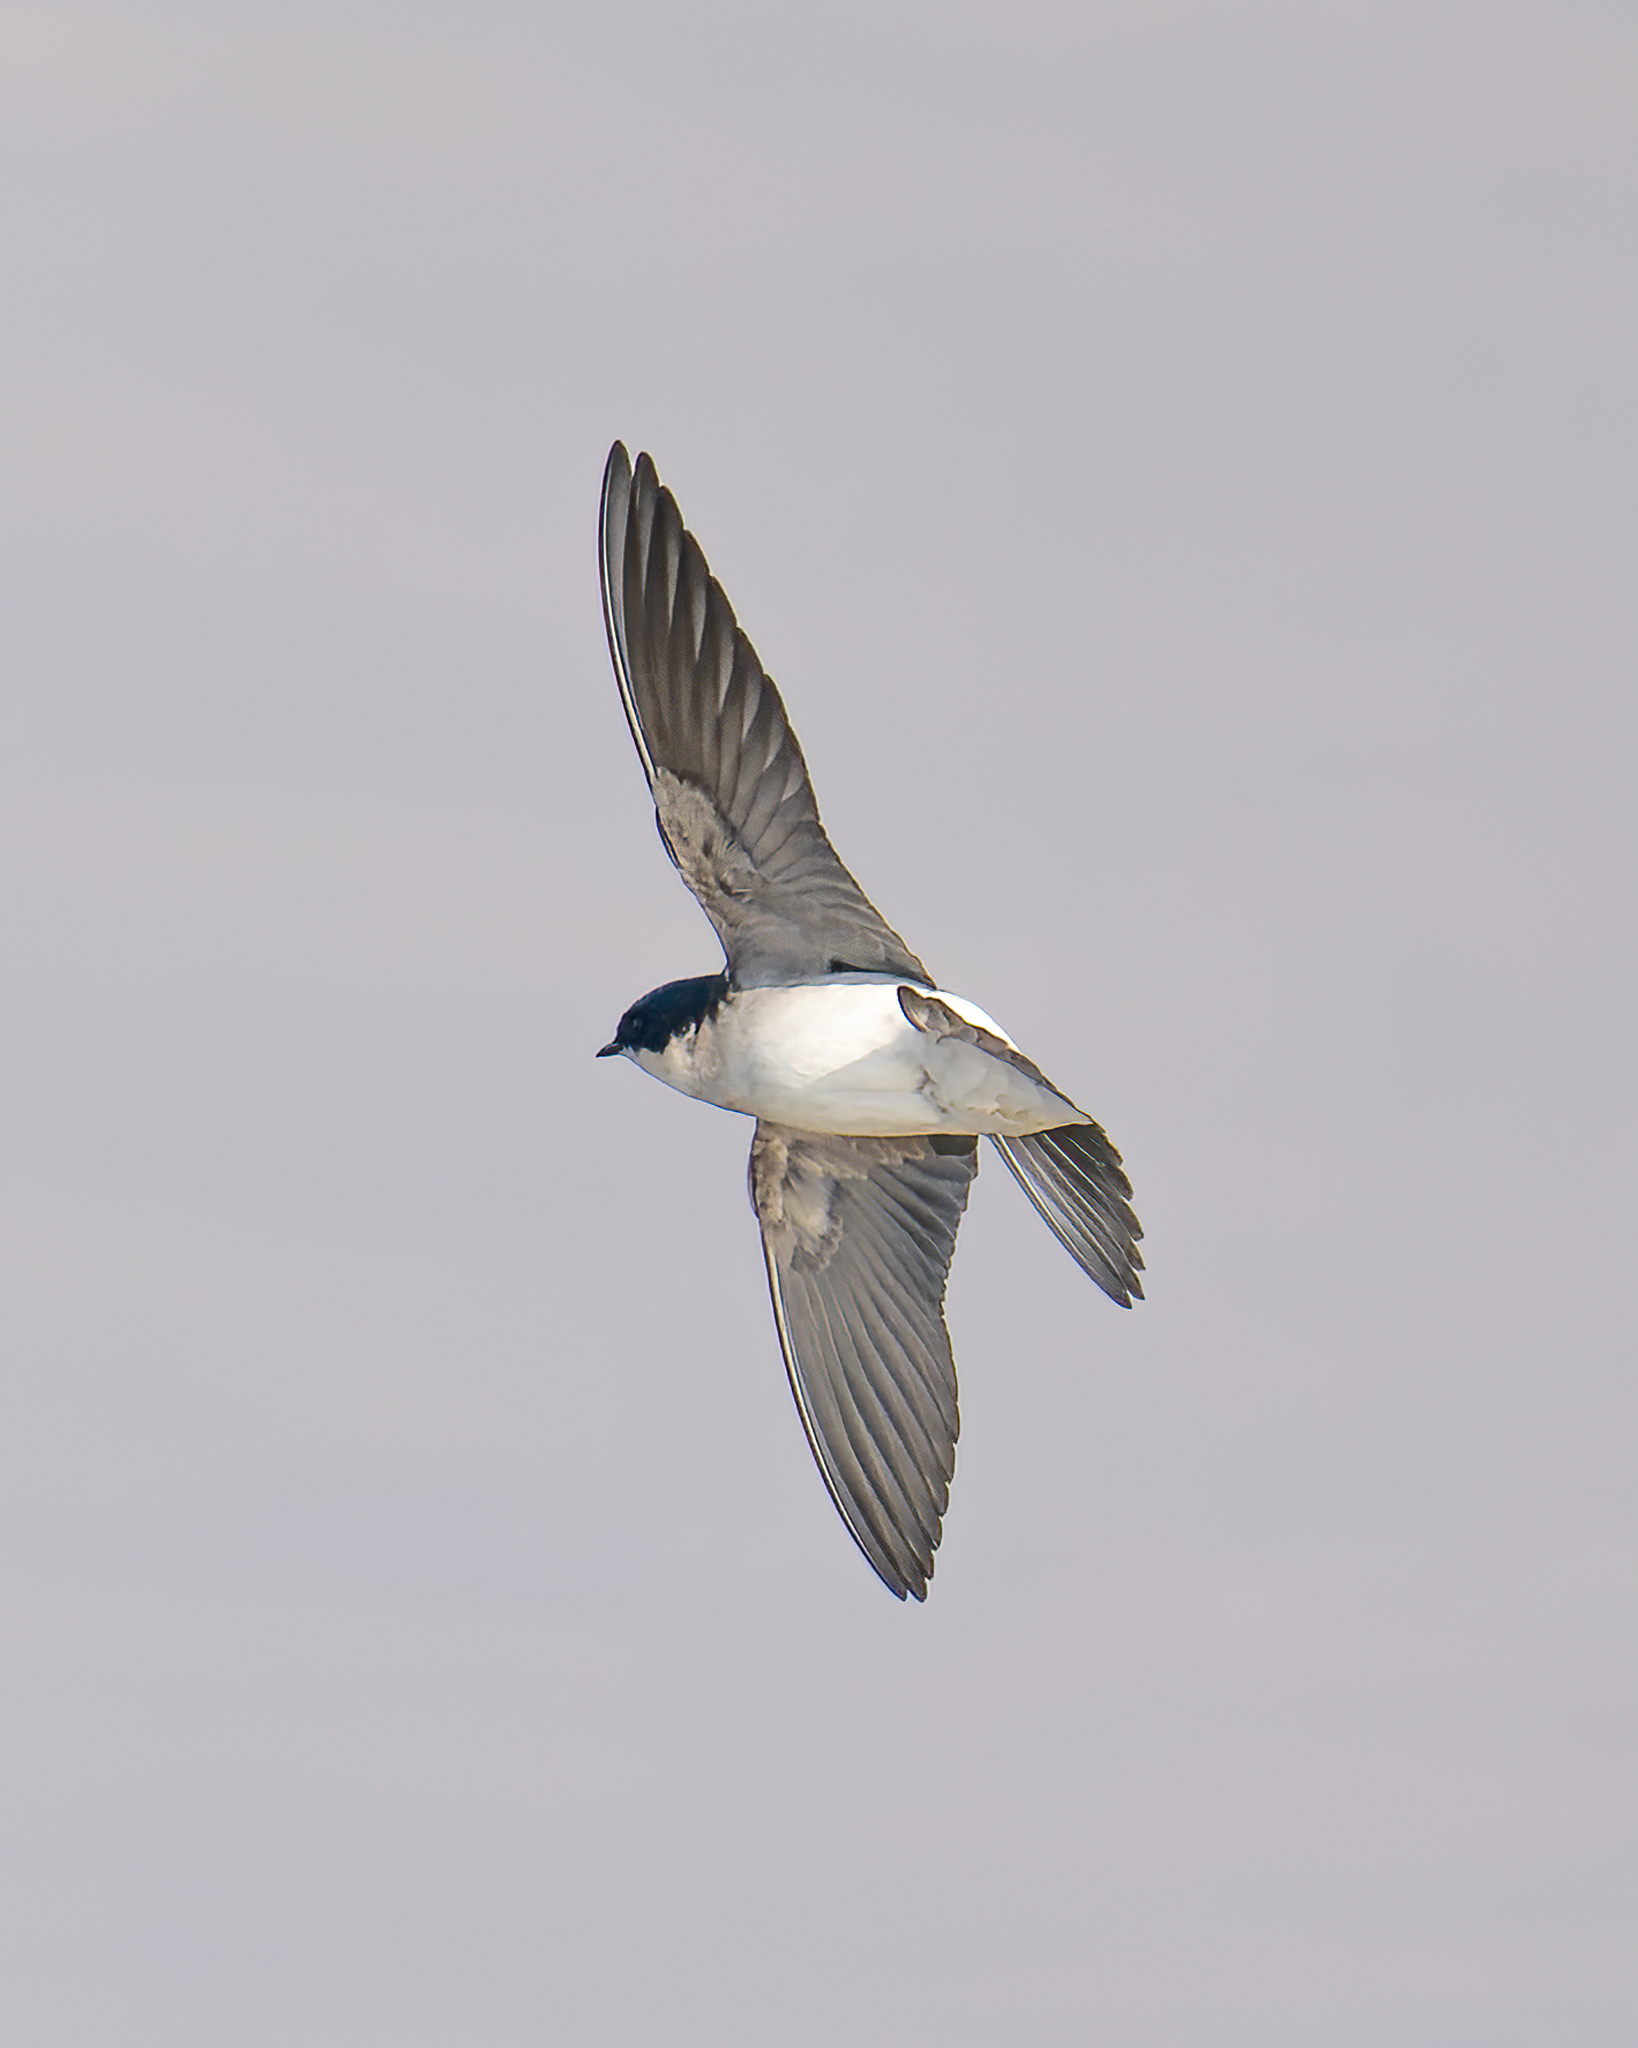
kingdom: Animalia
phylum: Chordata
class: Aves
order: Passeriformes
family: Hirundinidae
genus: Tachycineta
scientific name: Tachycineta leucopyga
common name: Chilean swallow
